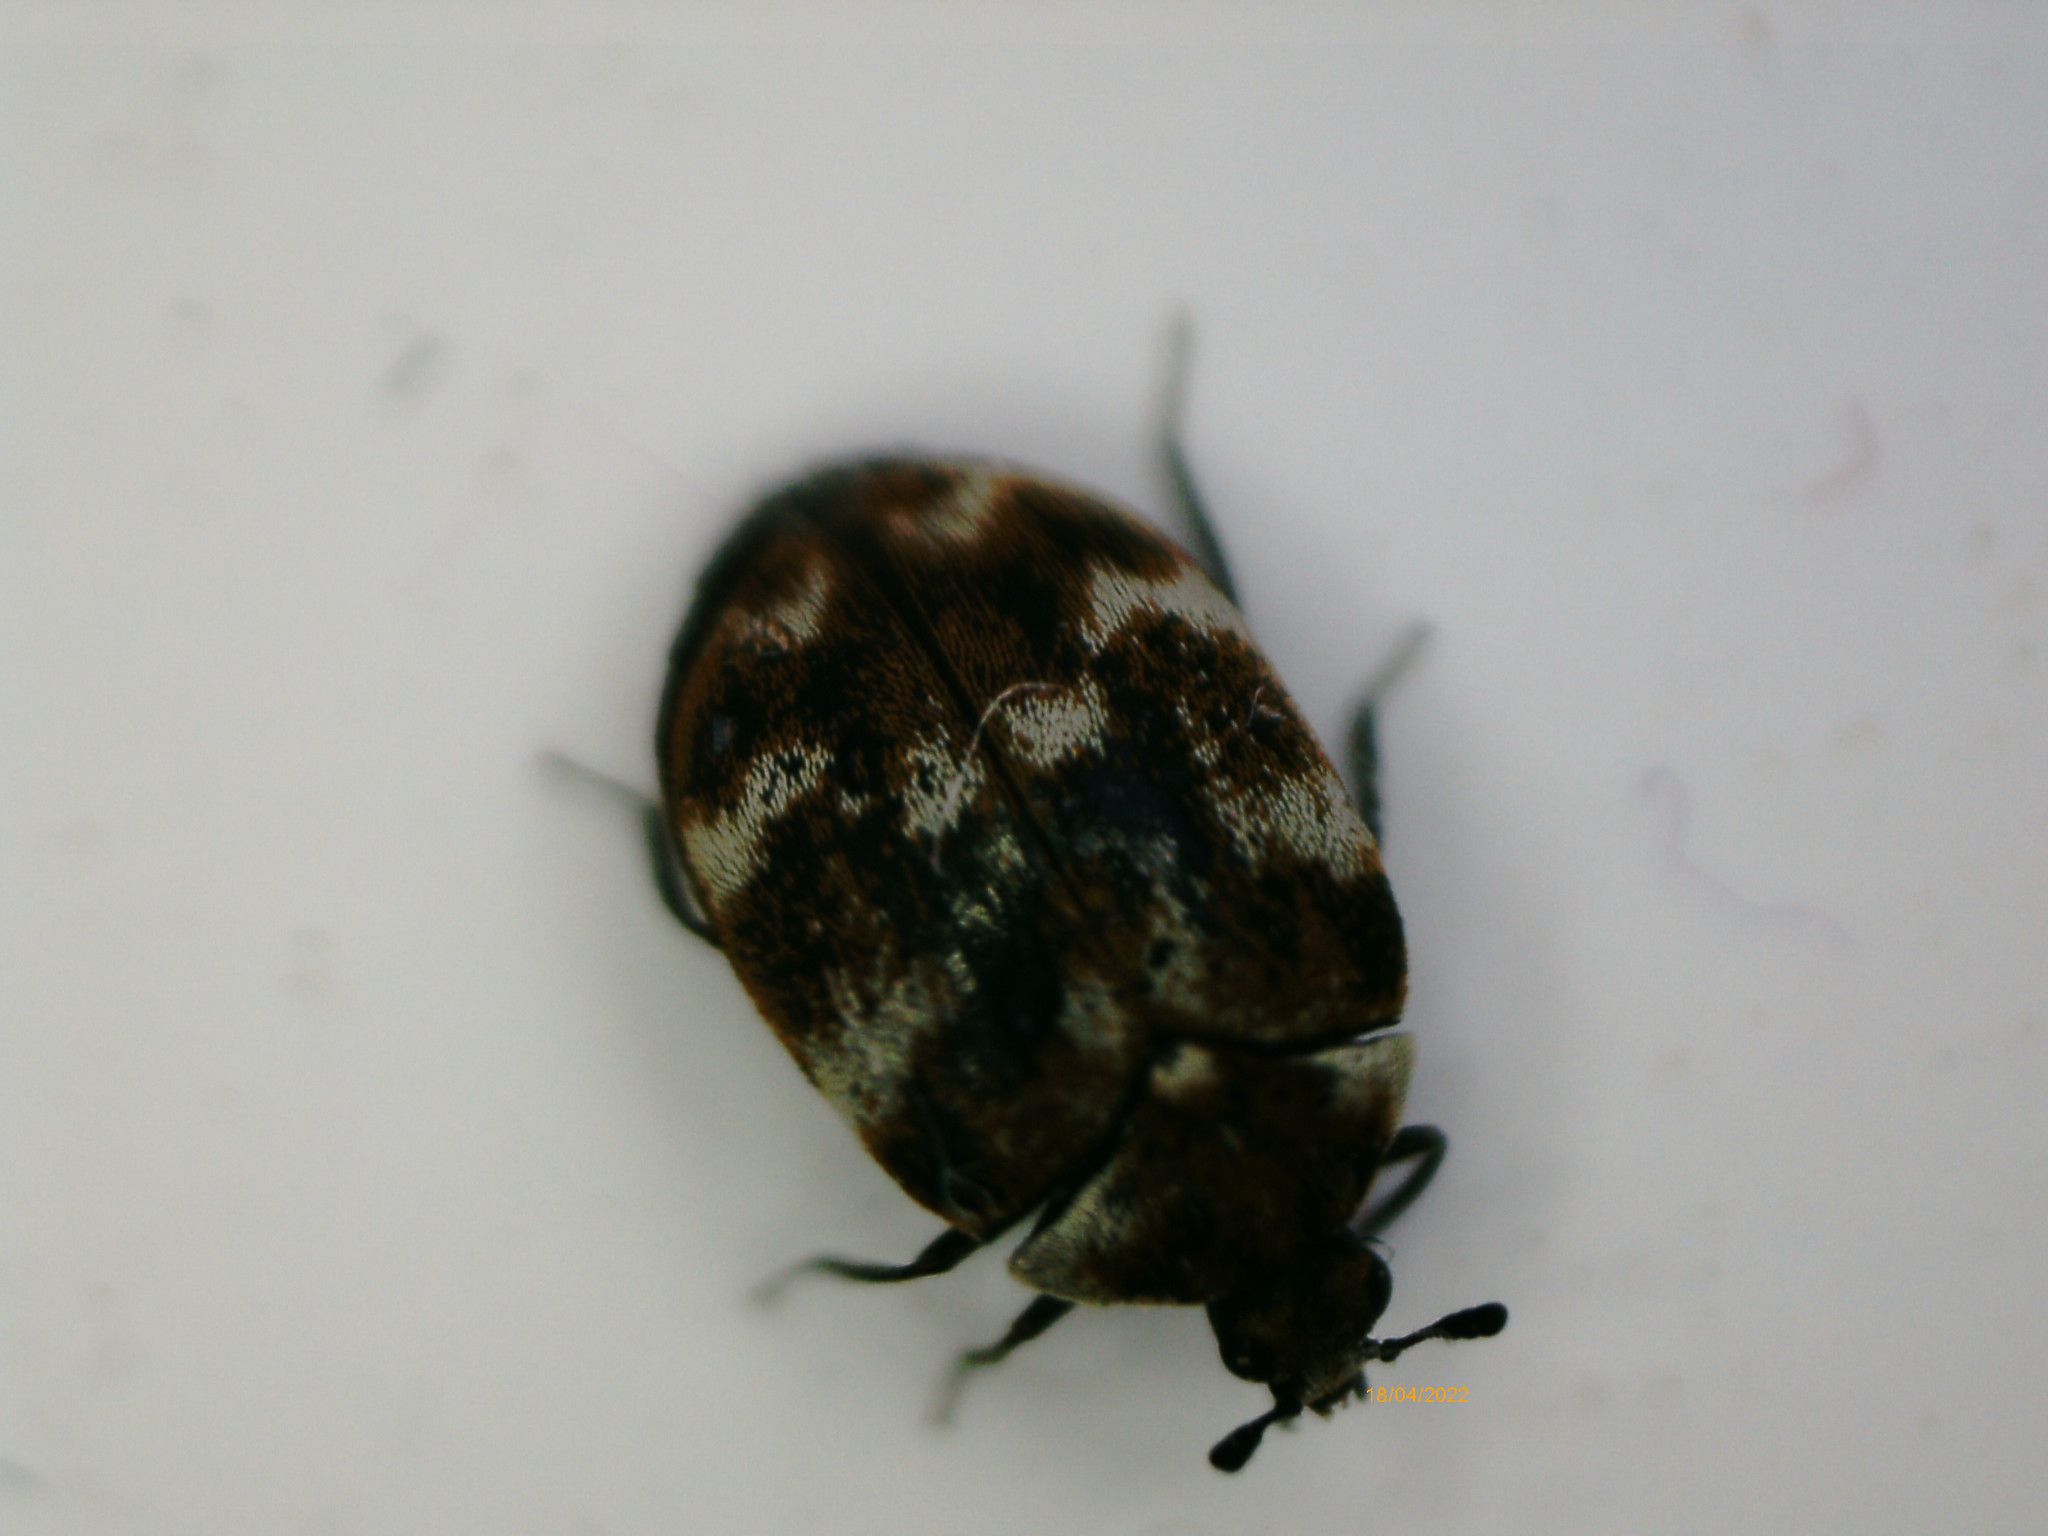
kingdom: Animalia
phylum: Arthropoda
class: Insecta
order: Coleoptera
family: Dermestidae
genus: Anthrenus
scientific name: Anthrenus verbasci
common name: Varied carpet beetle
